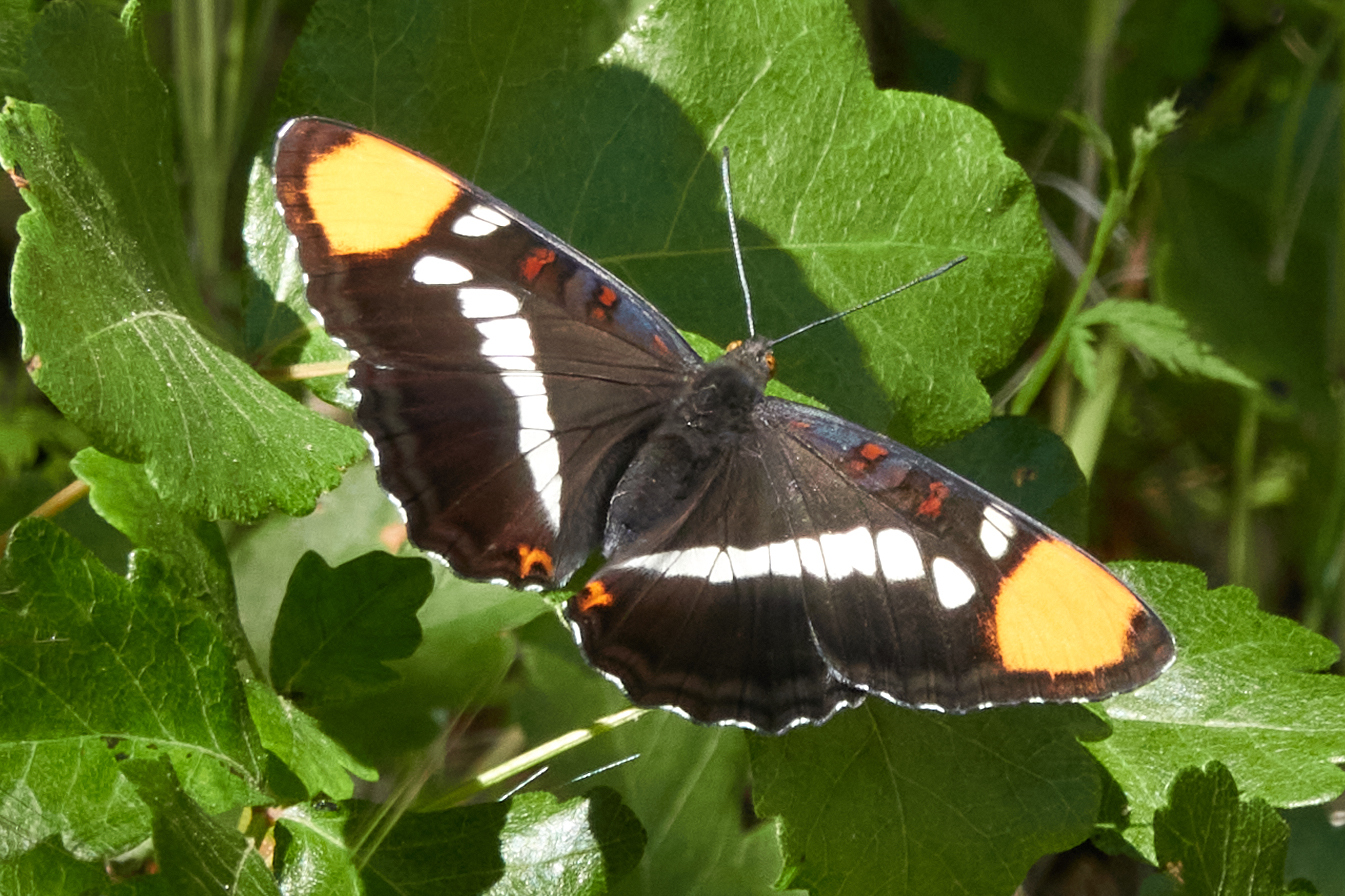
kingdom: Animalia
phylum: Arthropoda
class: Insecta
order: Lepidoptera
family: Nymphalidae
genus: Limenitis
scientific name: Limenitis bredowii
